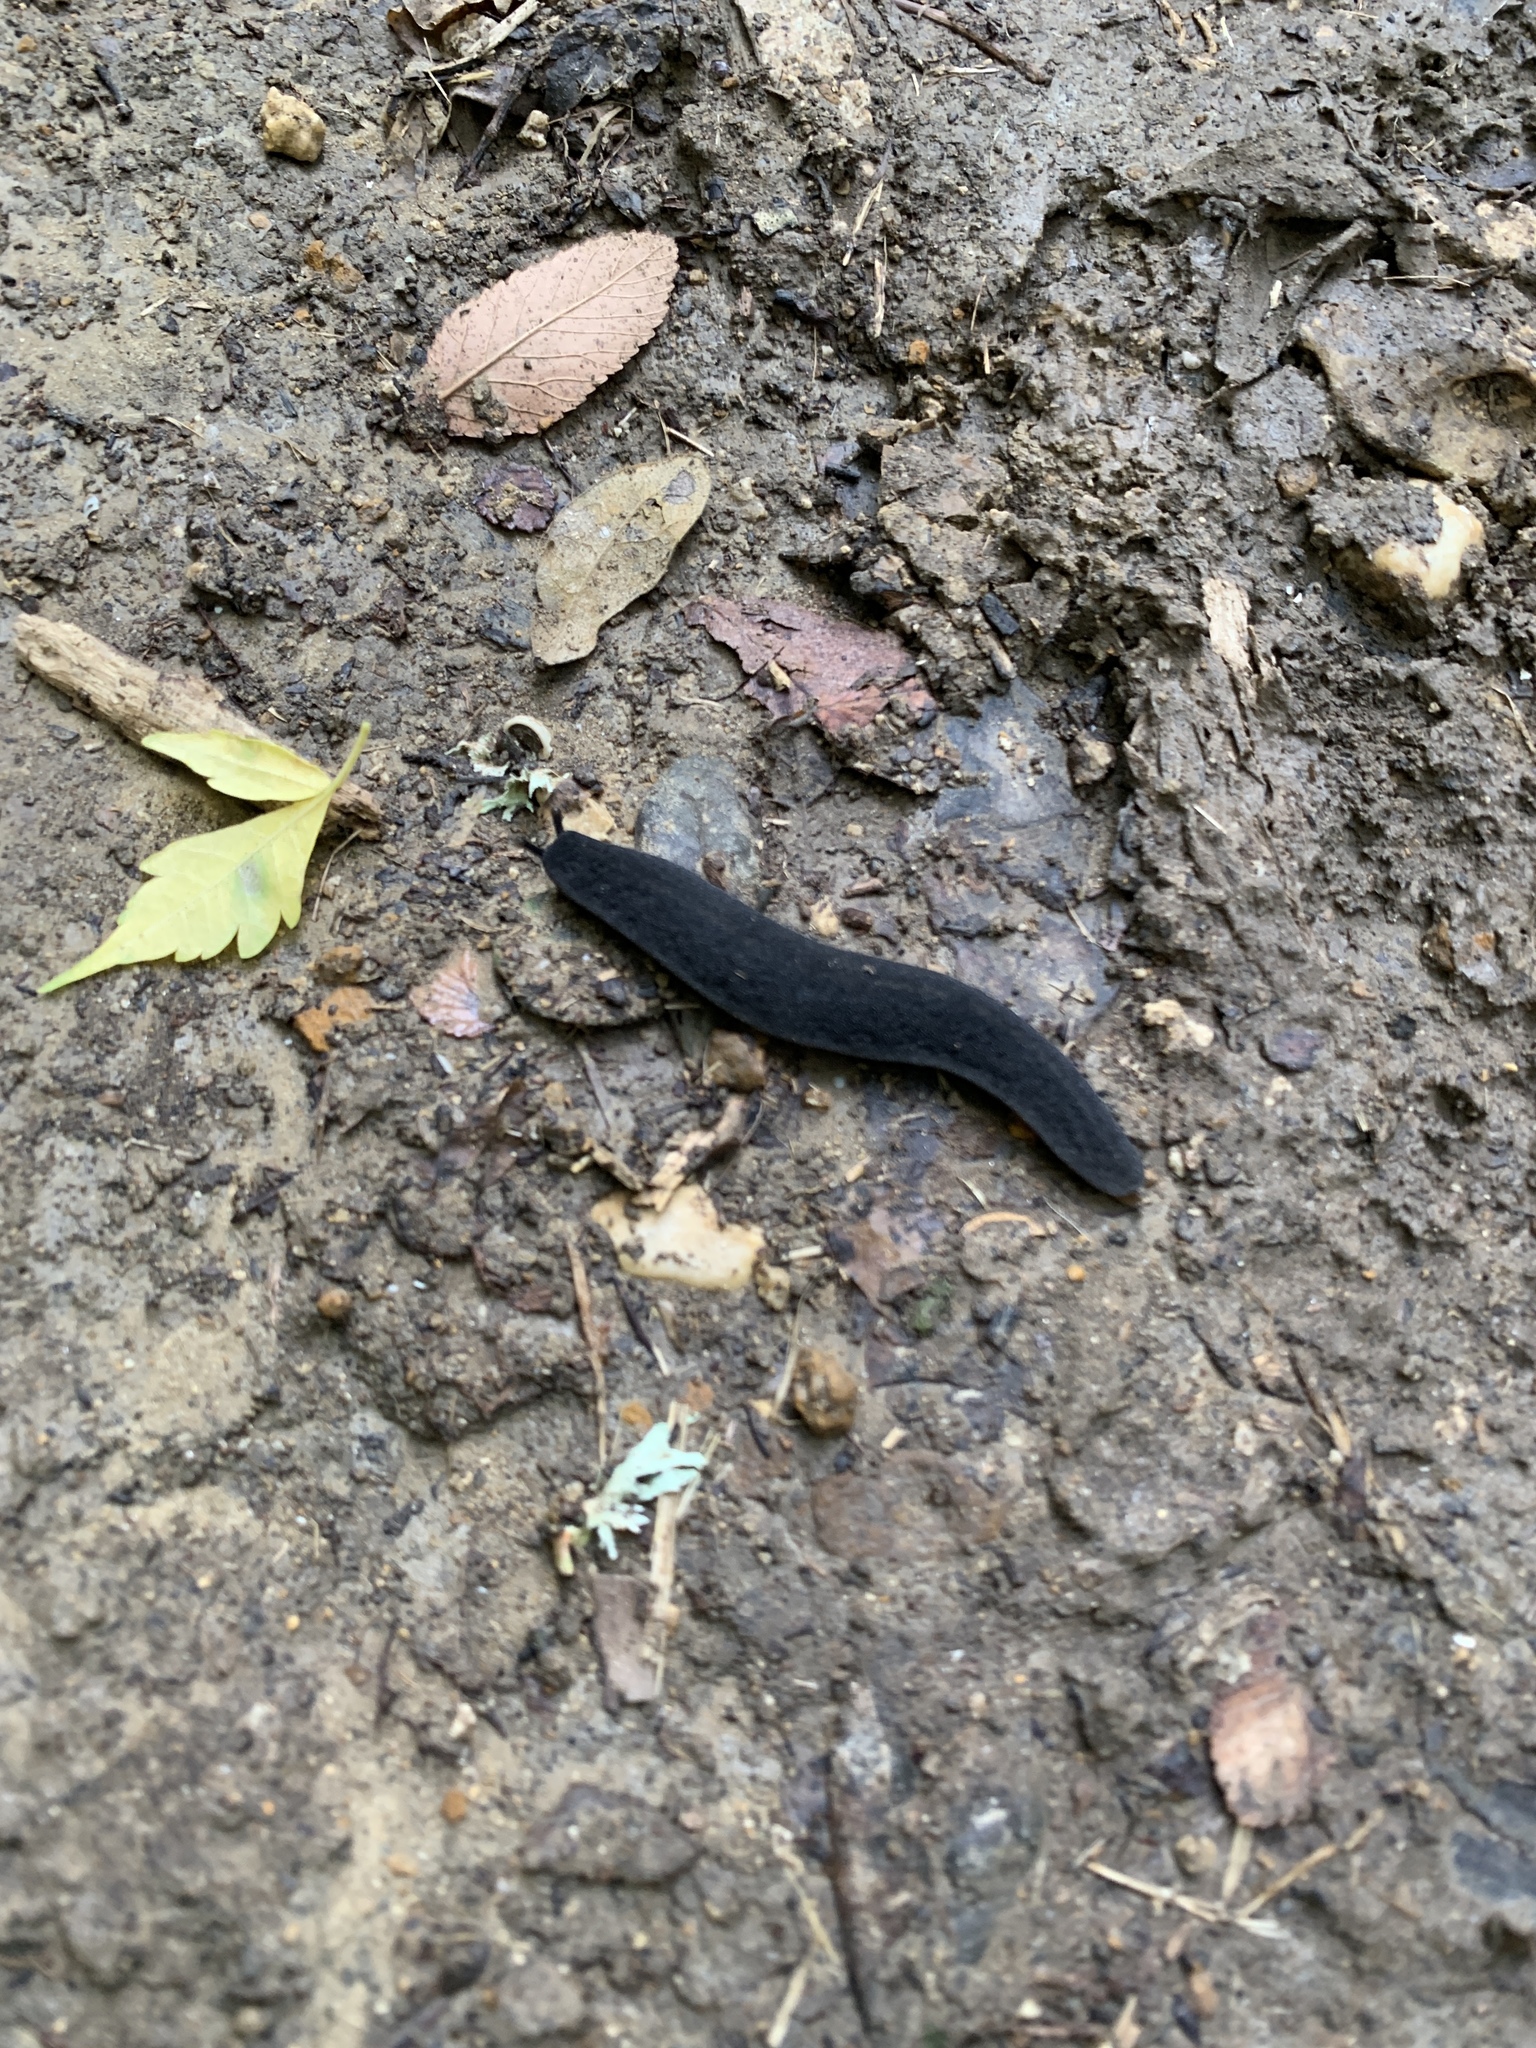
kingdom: Animalia
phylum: Mollusca
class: Gastropoda
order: Systellommatophora
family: Veronicellidae
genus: Belocaulus
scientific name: Belocaulus angustipes
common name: Black velvet leatherleaf slug
